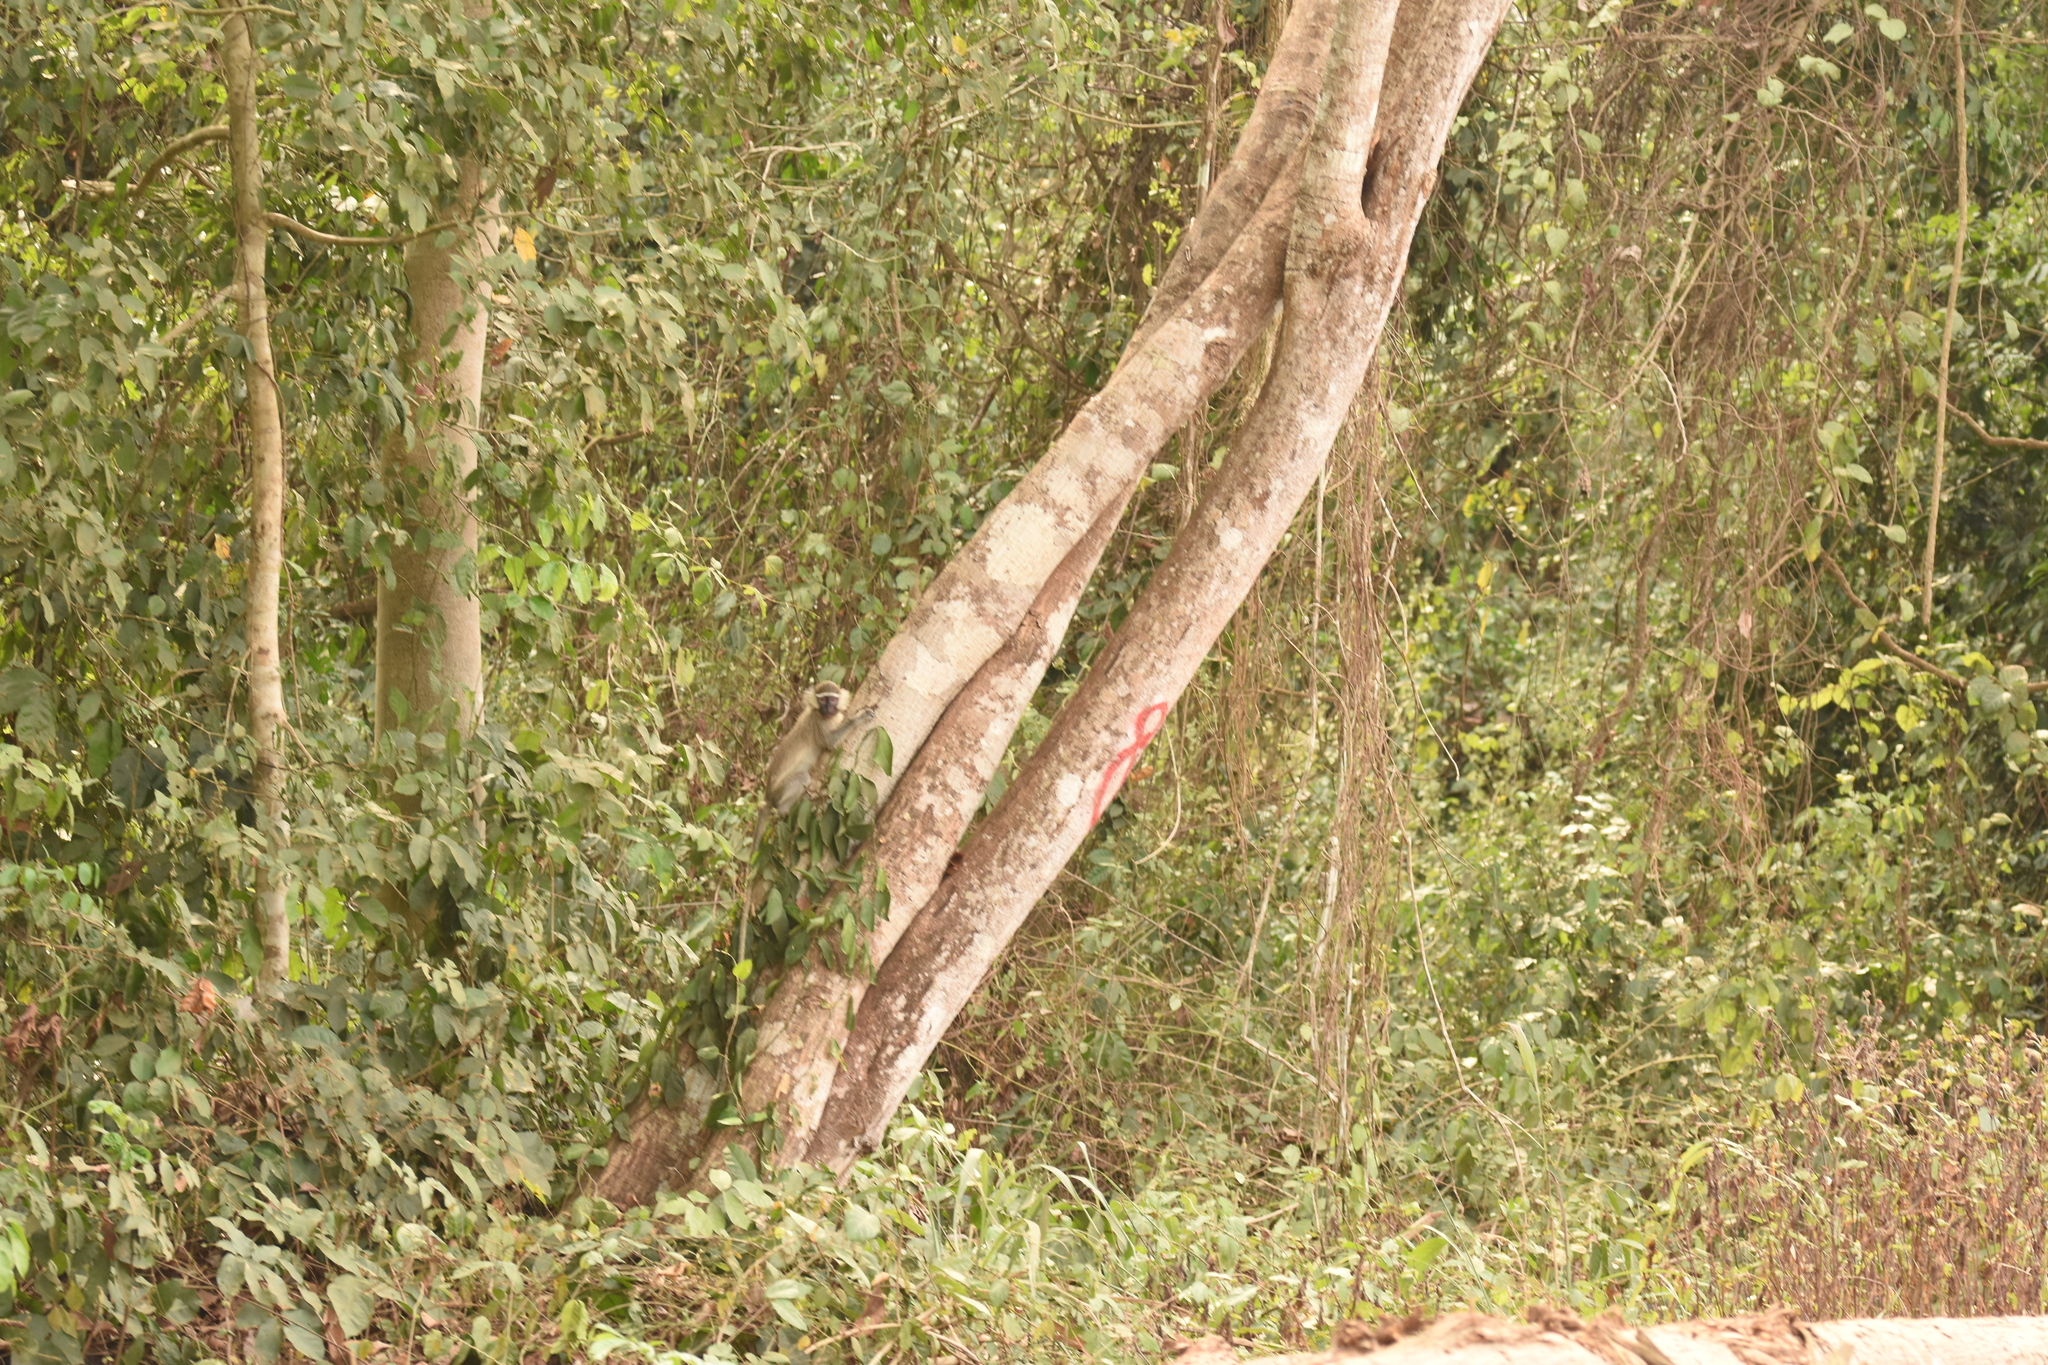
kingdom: Animalia
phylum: Chordata
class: Mammalia
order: Primates
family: Cercopithecidae
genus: Chlorocebus
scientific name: Chlorocebus tantalus
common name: Tantalus monkey
